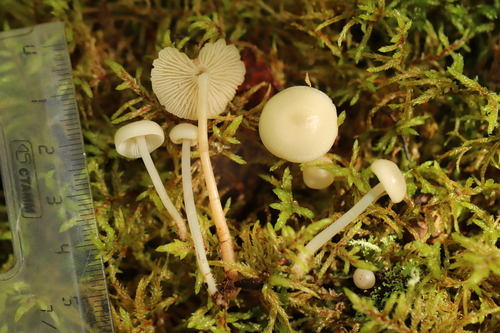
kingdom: Fungi
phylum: Basidiomycota
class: Agaricomycetes
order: Agaricales
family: Marasmiaceae
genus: Marasmius
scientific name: Marasmius wynneae
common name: Pearly parachute
